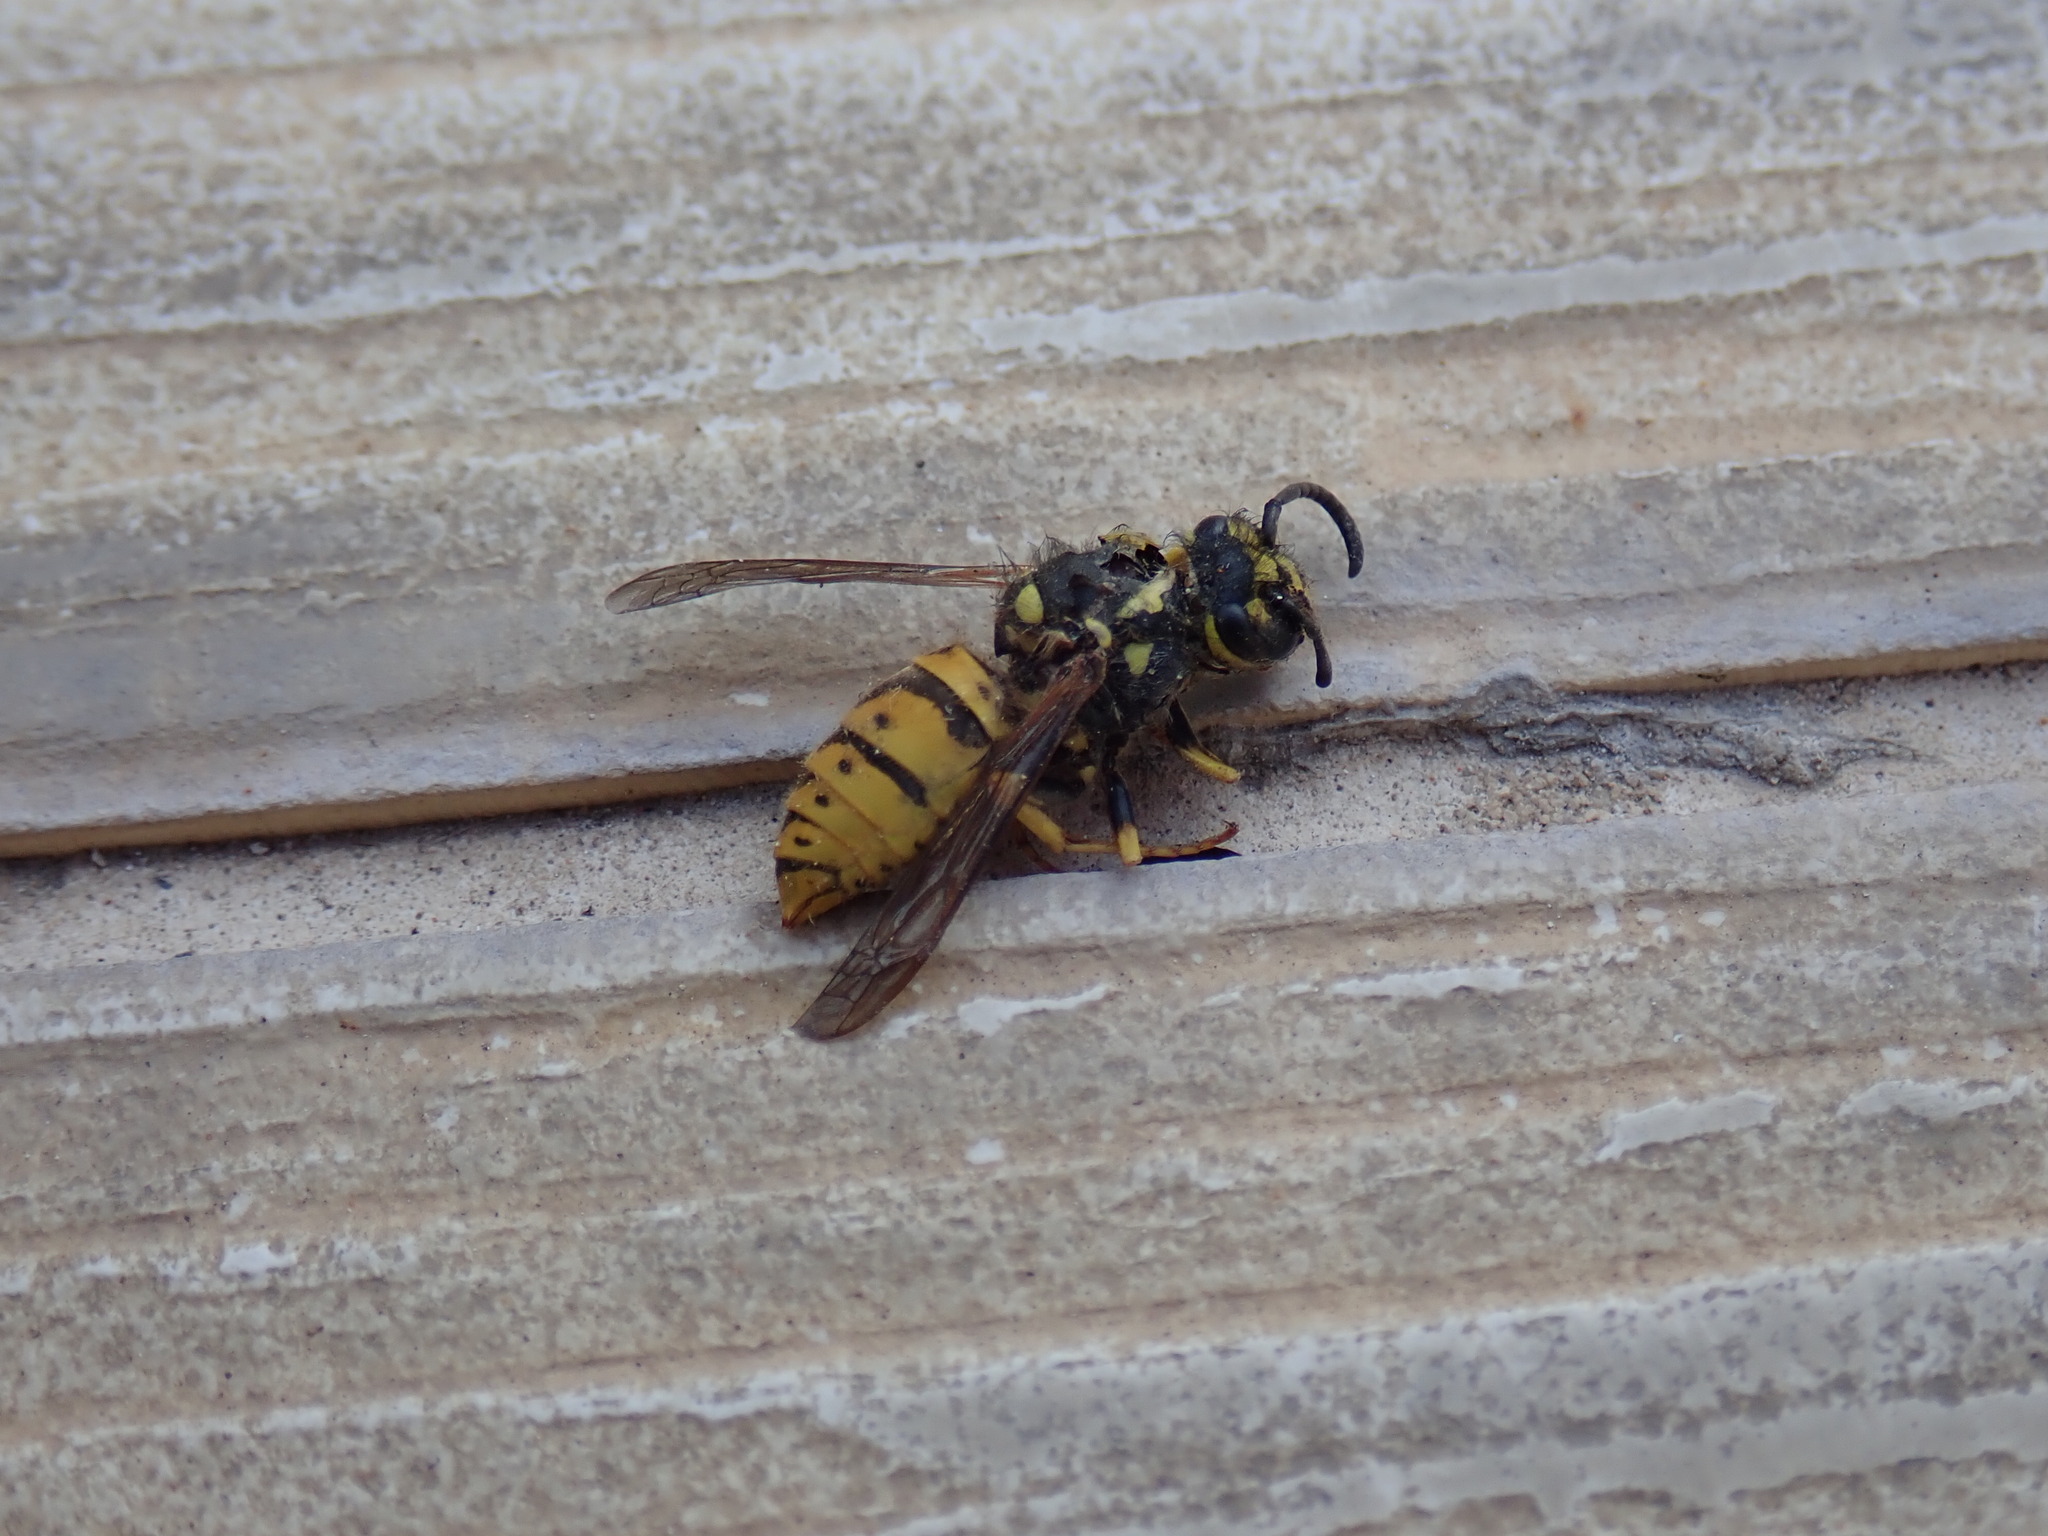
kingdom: Animalia
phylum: Arthropoda
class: Insecta
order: Hymenoptera
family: Vespidae
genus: Vespula
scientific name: Vespula germanica
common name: German wasp
